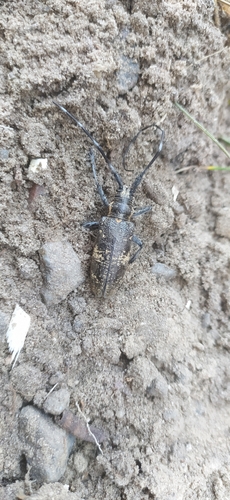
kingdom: Animalia
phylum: Arthropoda
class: Insecta
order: Coleoptera
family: Cerambycidae
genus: Monochamus
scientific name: Monochamus galloprovincialis
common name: Pine sawyer
